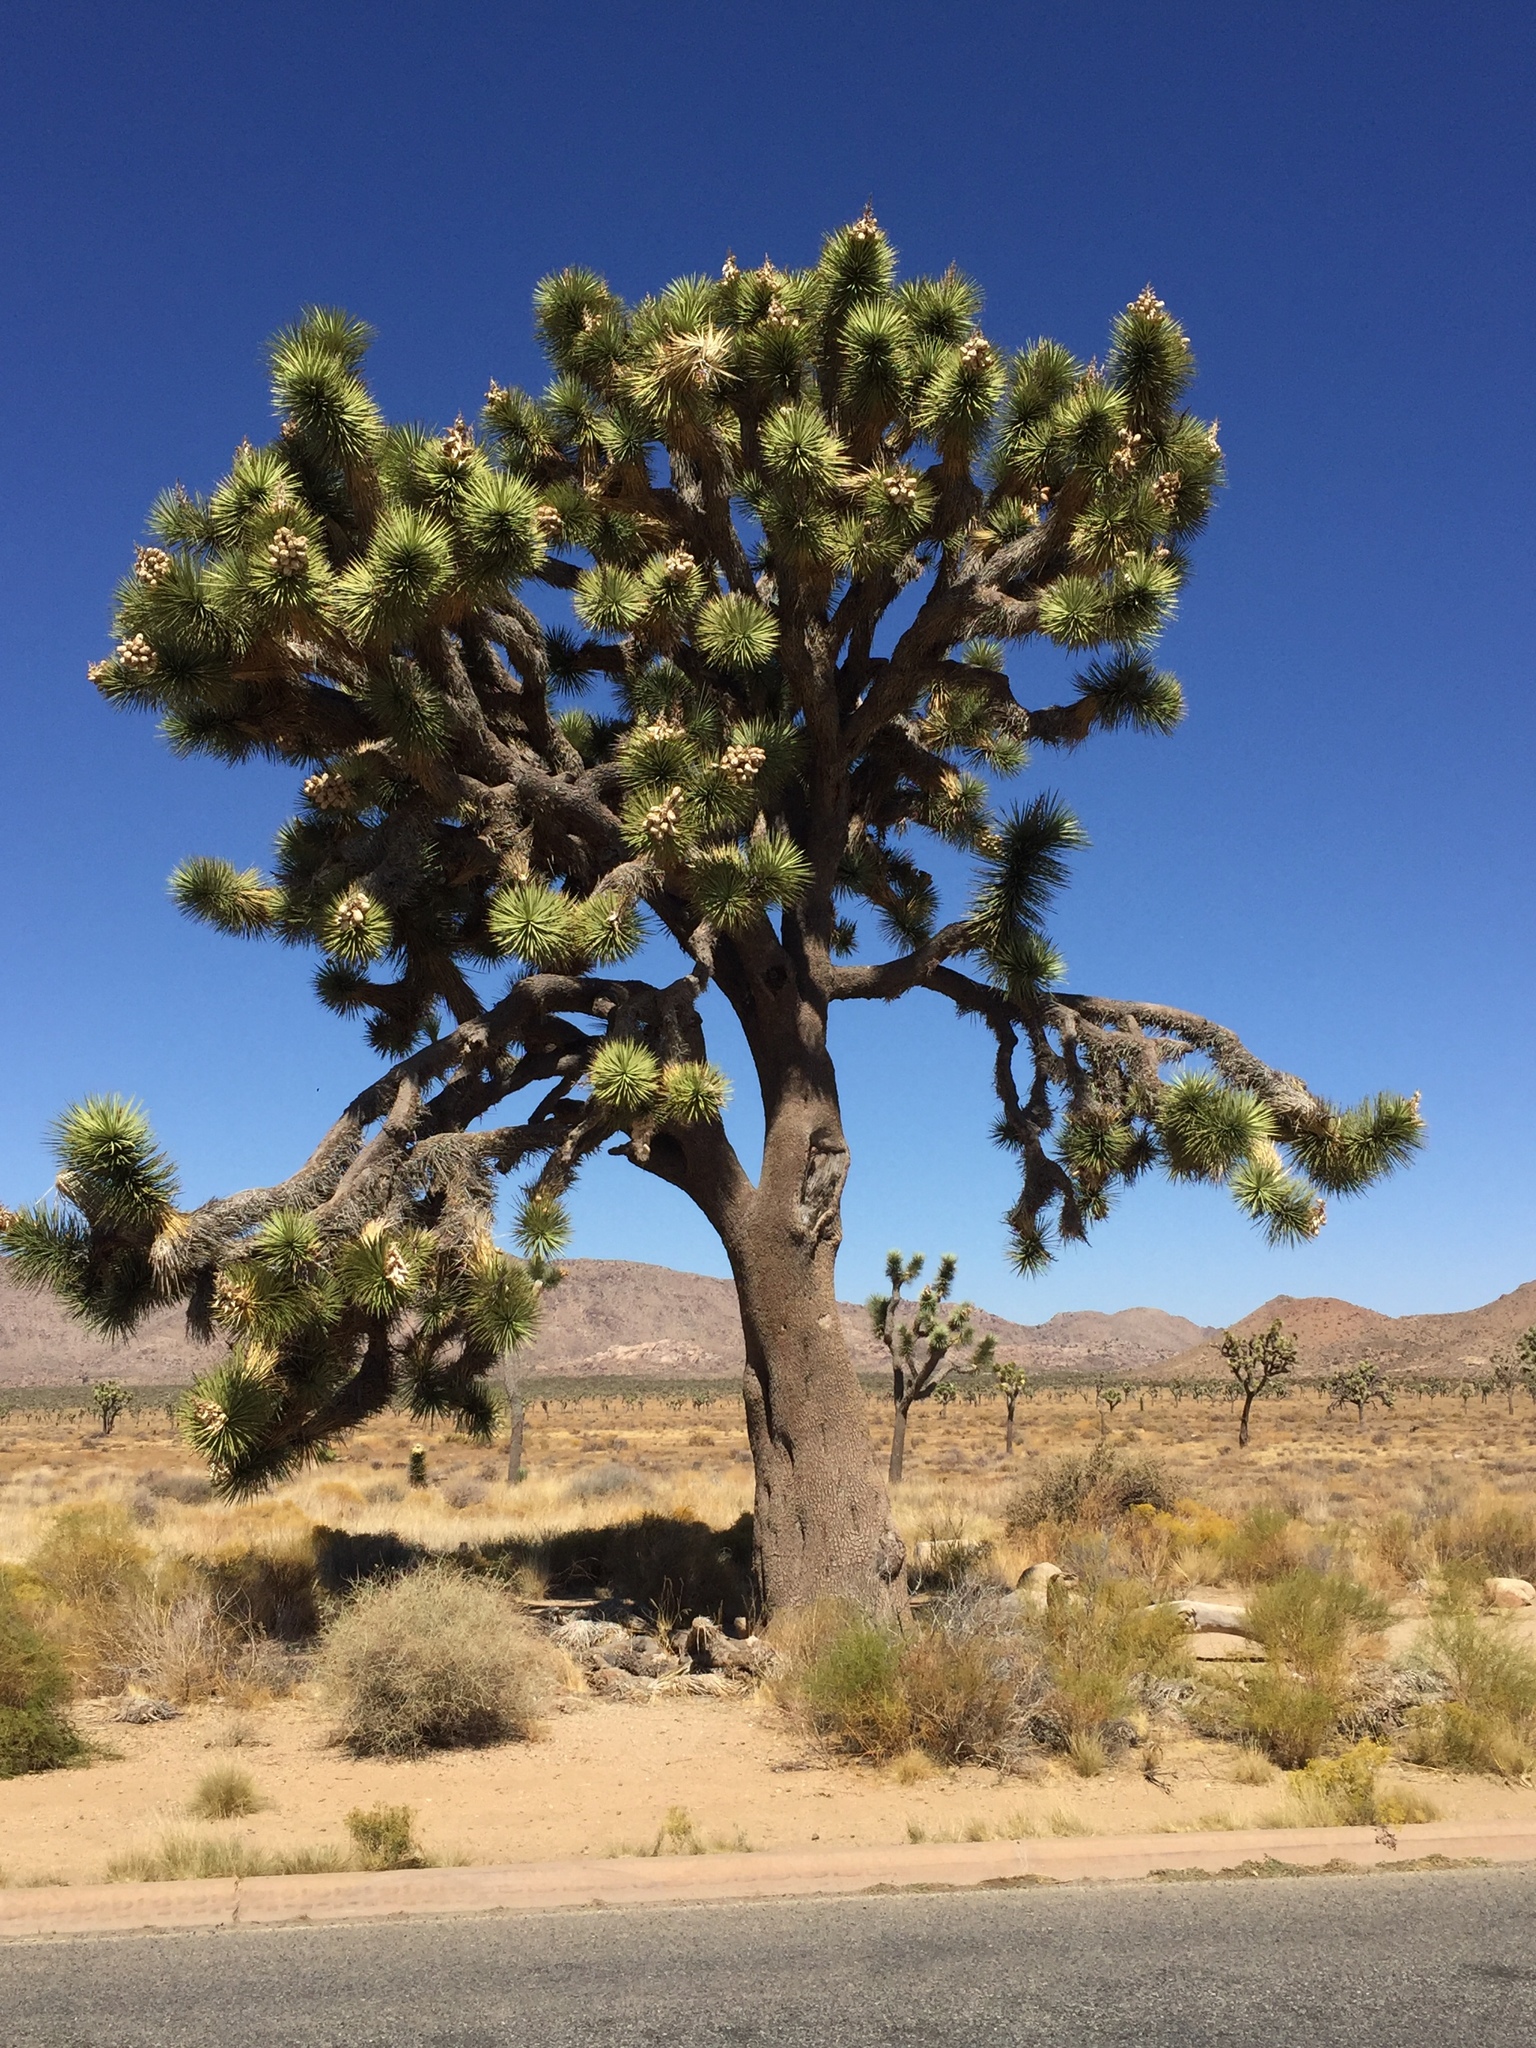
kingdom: Plantae
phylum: Tracheophyta
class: Liliopsida
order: Asparagales
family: Asparagaceae
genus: Yucca
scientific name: Yucca brevifolia
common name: Joshua tree
